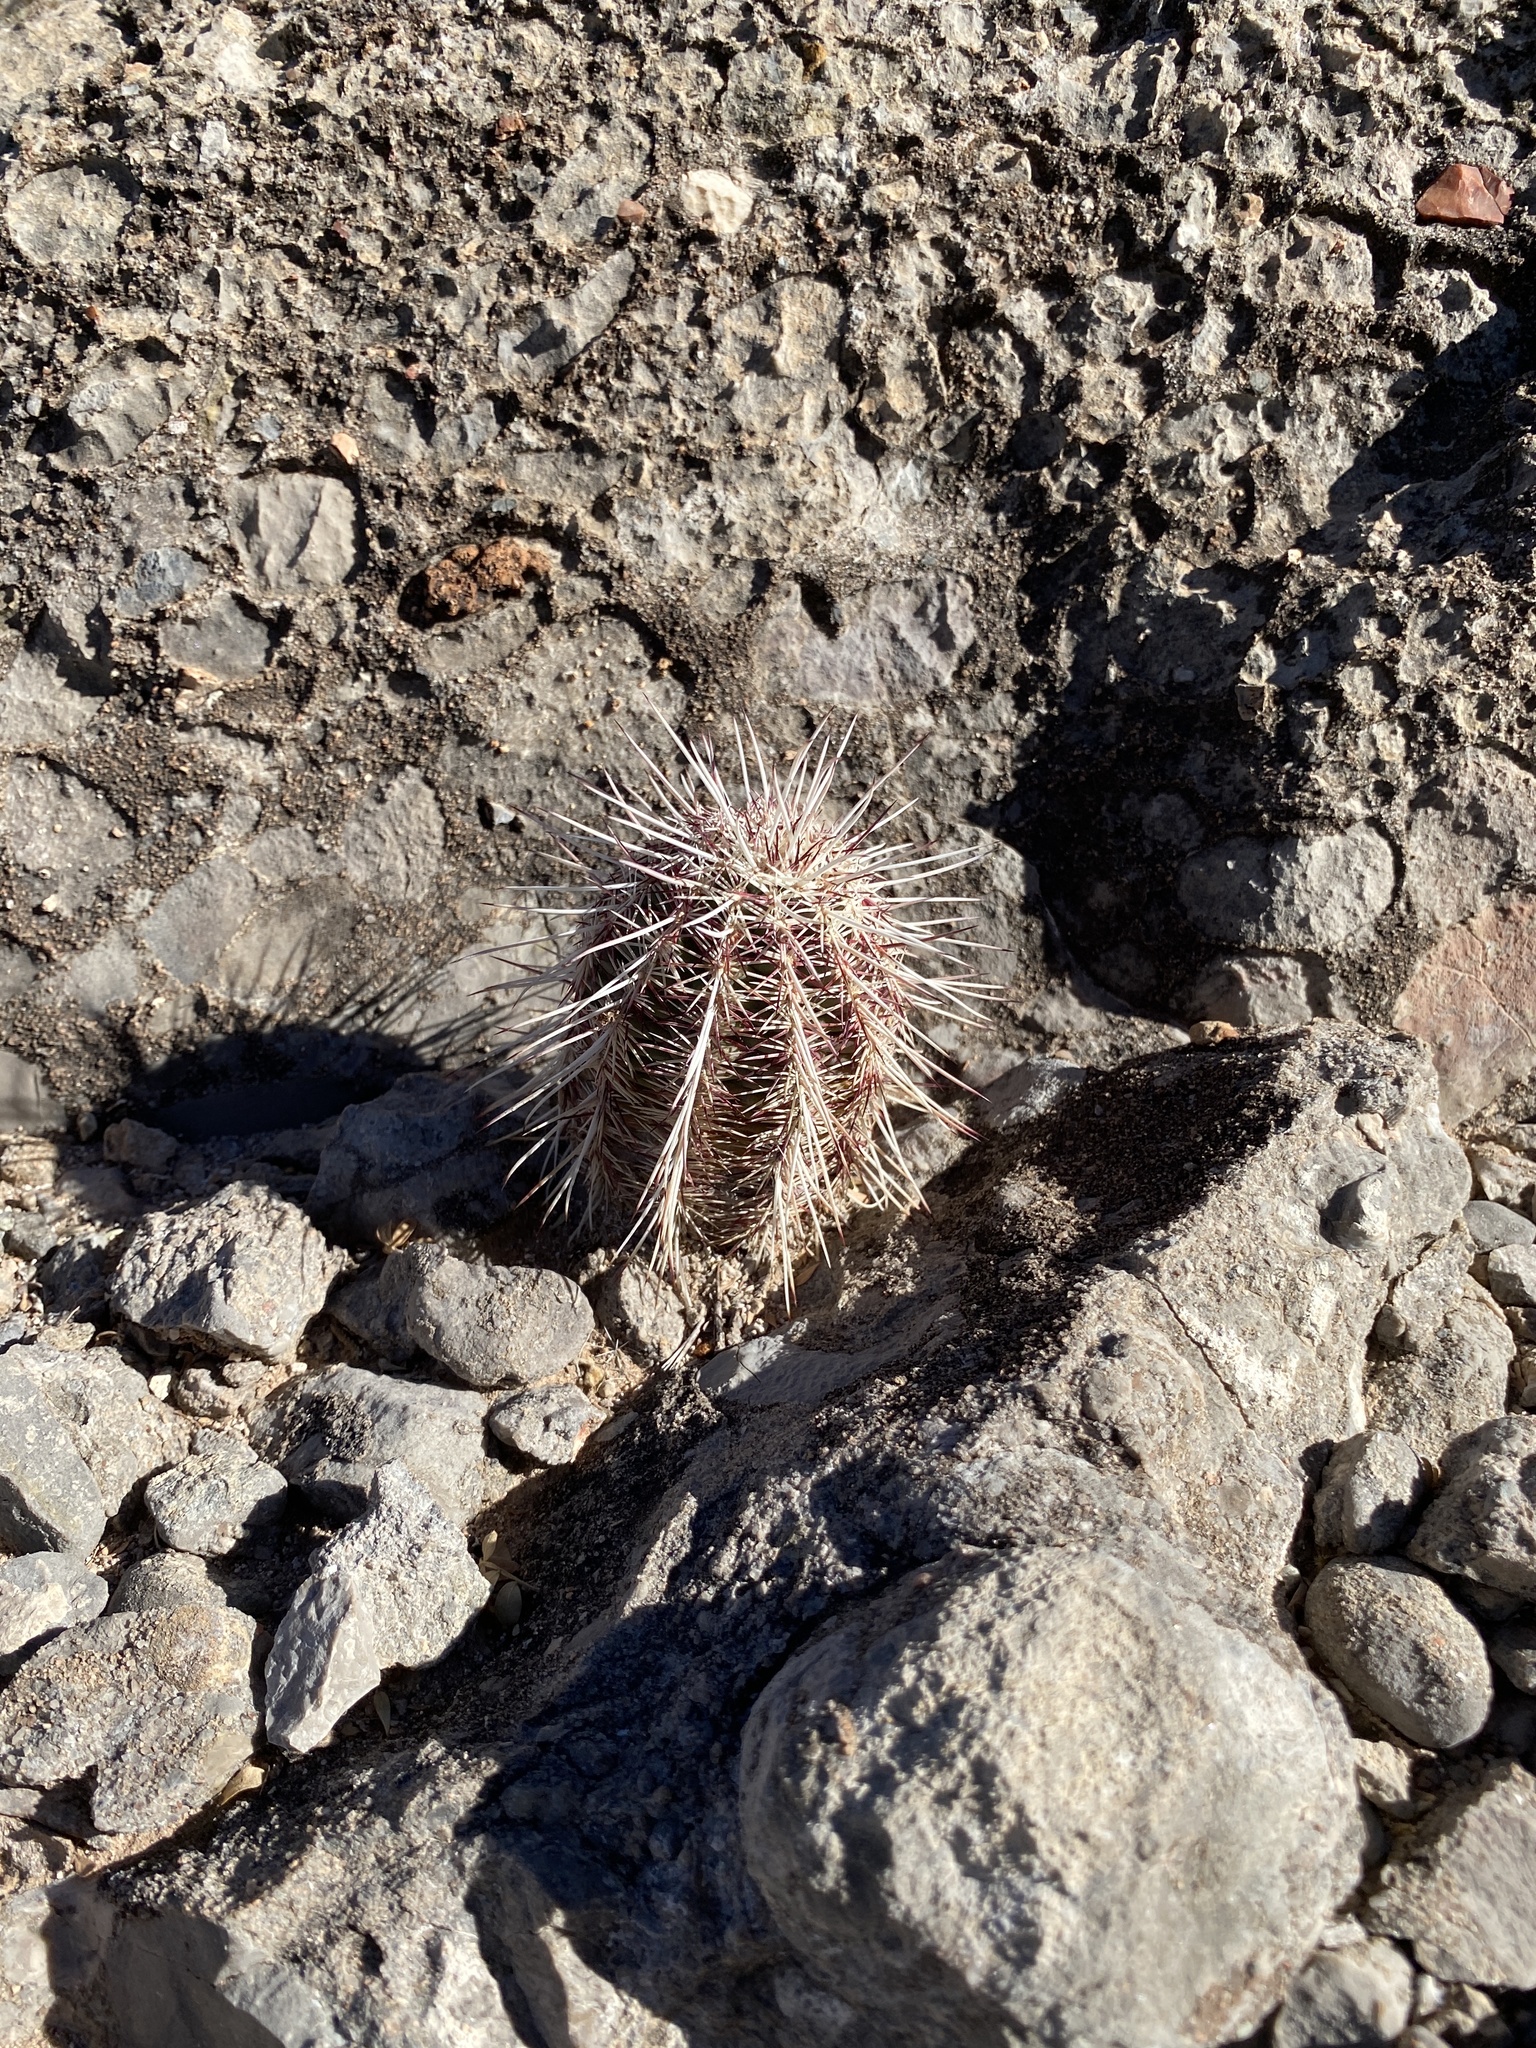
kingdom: Plantae
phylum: Tracheophyta
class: Magnoliopsida
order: Caryophyllales
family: Cactaceae
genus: Echinocereus
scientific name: Echinocereus viridiflorus
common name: Nylon hedgehog cactus
